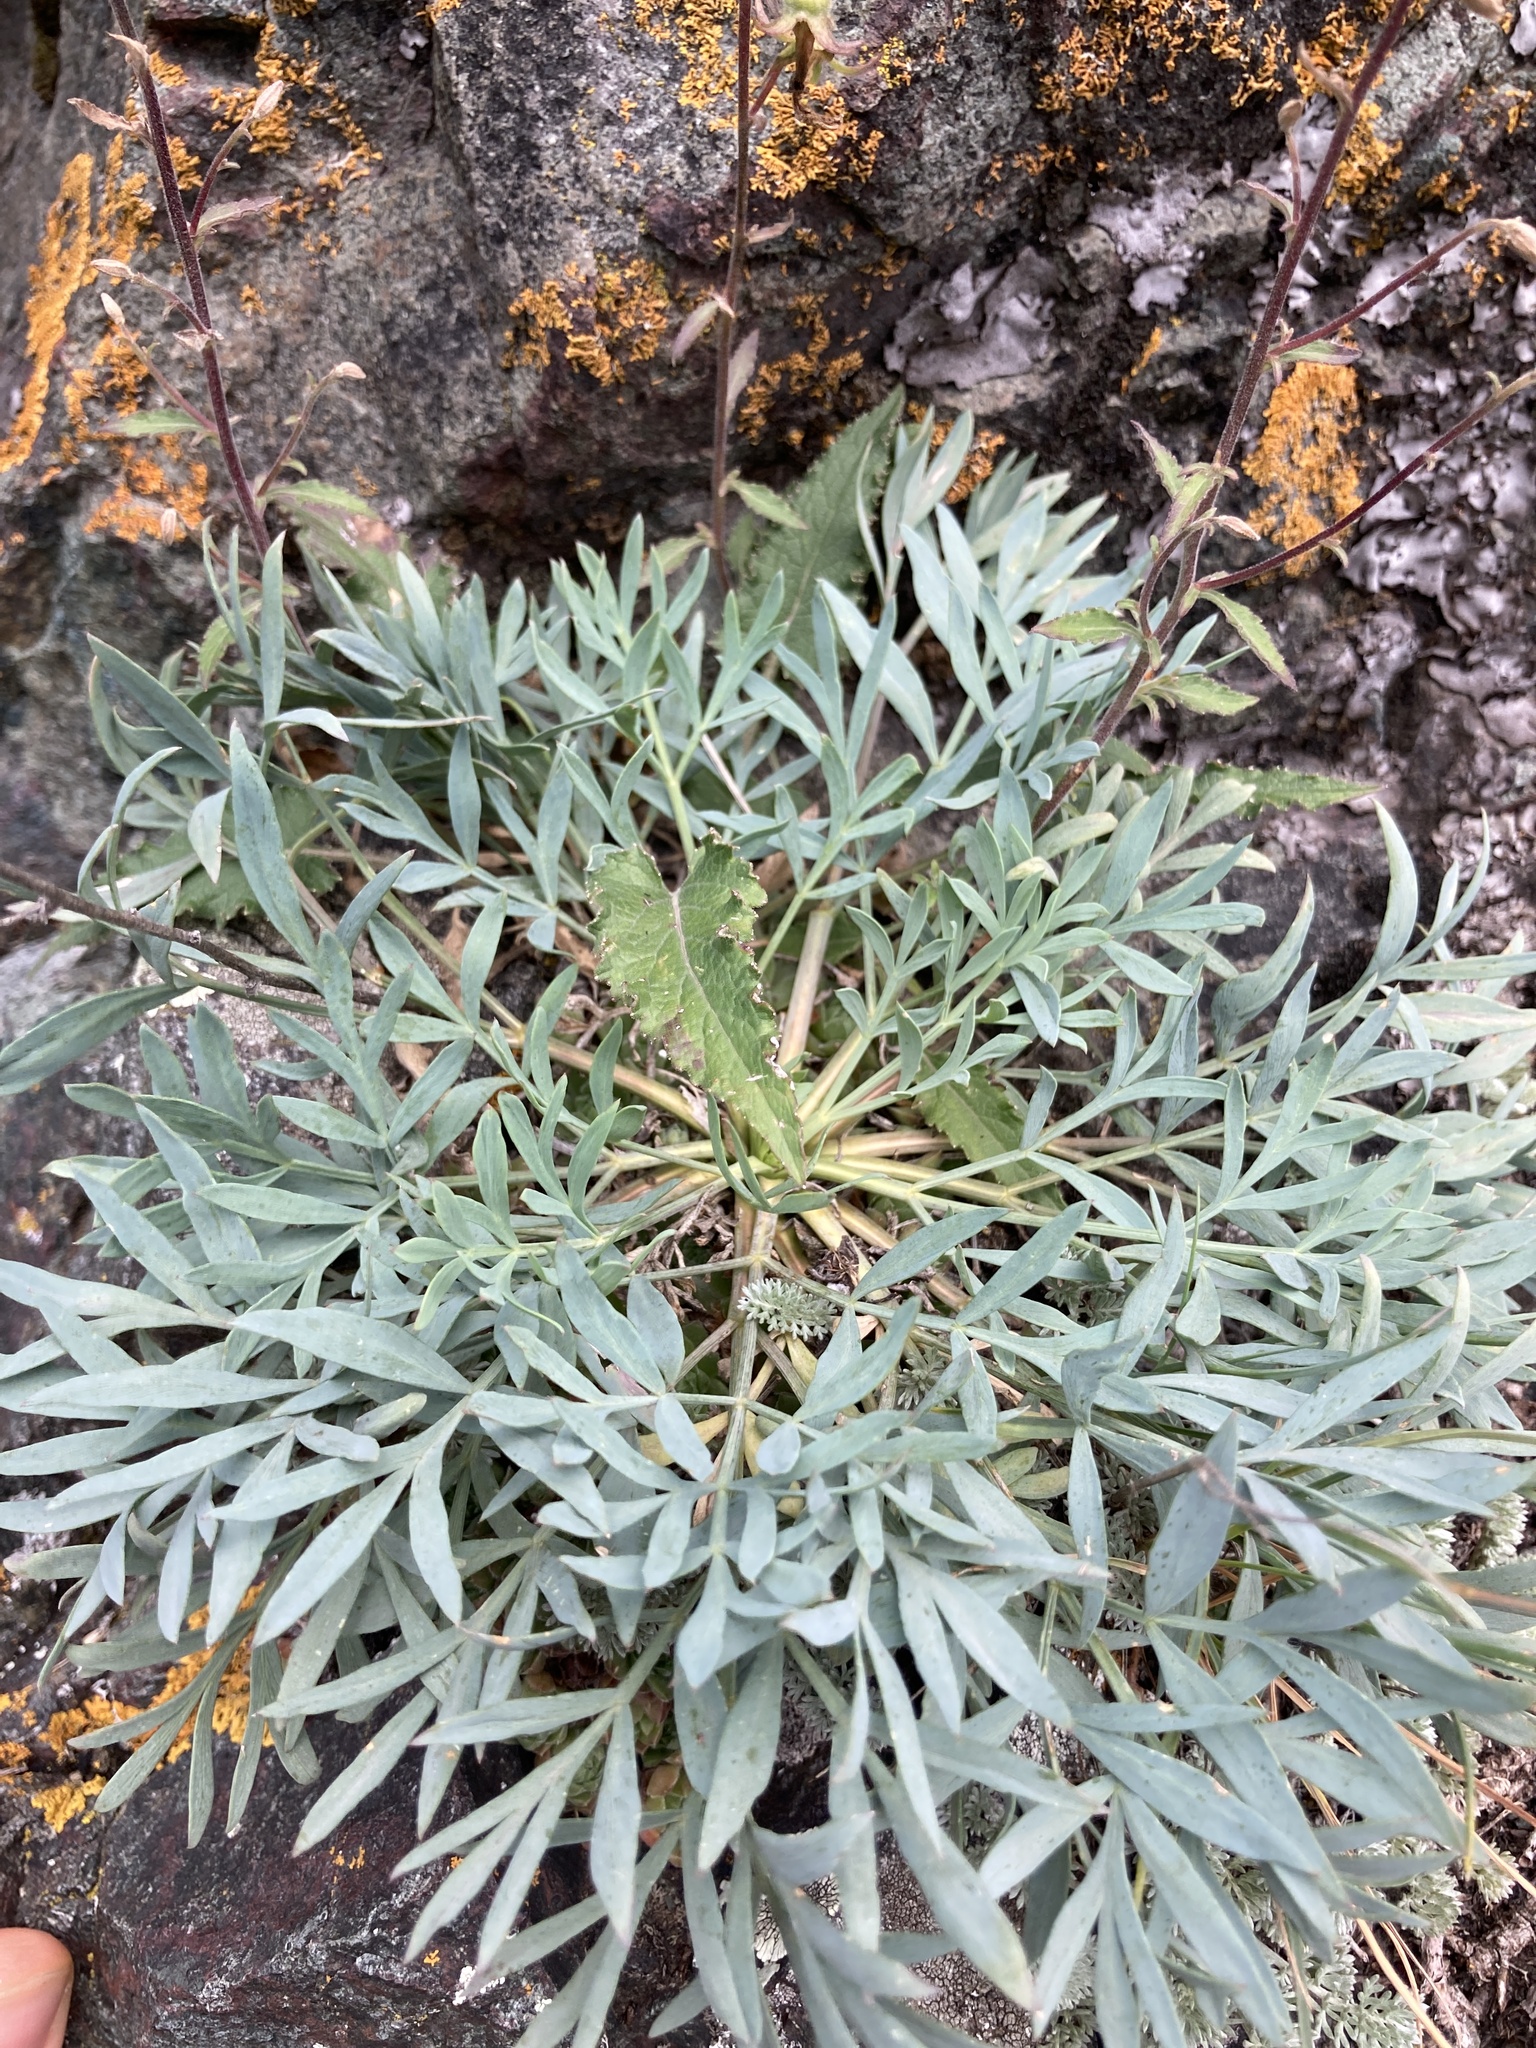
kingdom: Plantae
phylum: Tracheophyta
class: Magnoliopsida
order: Apiales
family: Apiaceae
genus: Hippomarathrum
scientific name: Hippomarathrum petraeum
